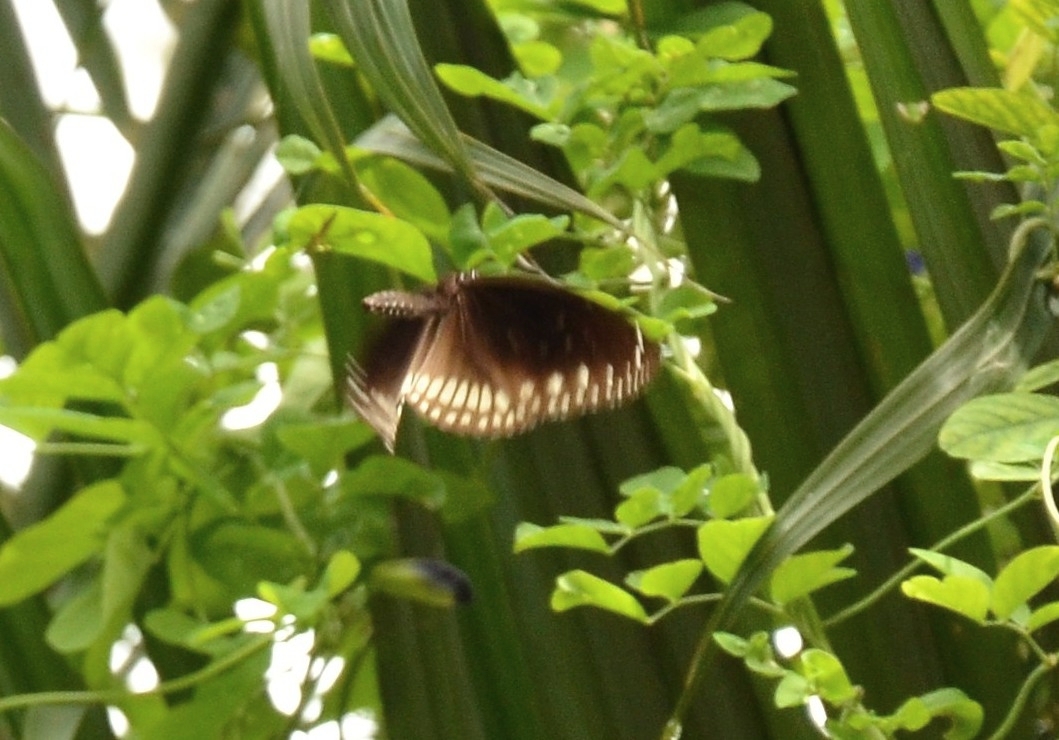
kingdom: Animalia
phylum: Arthropoda
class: Insecta
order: Lepidoptera
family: Nymphalidae
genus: Euploea
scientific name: Euploea core
